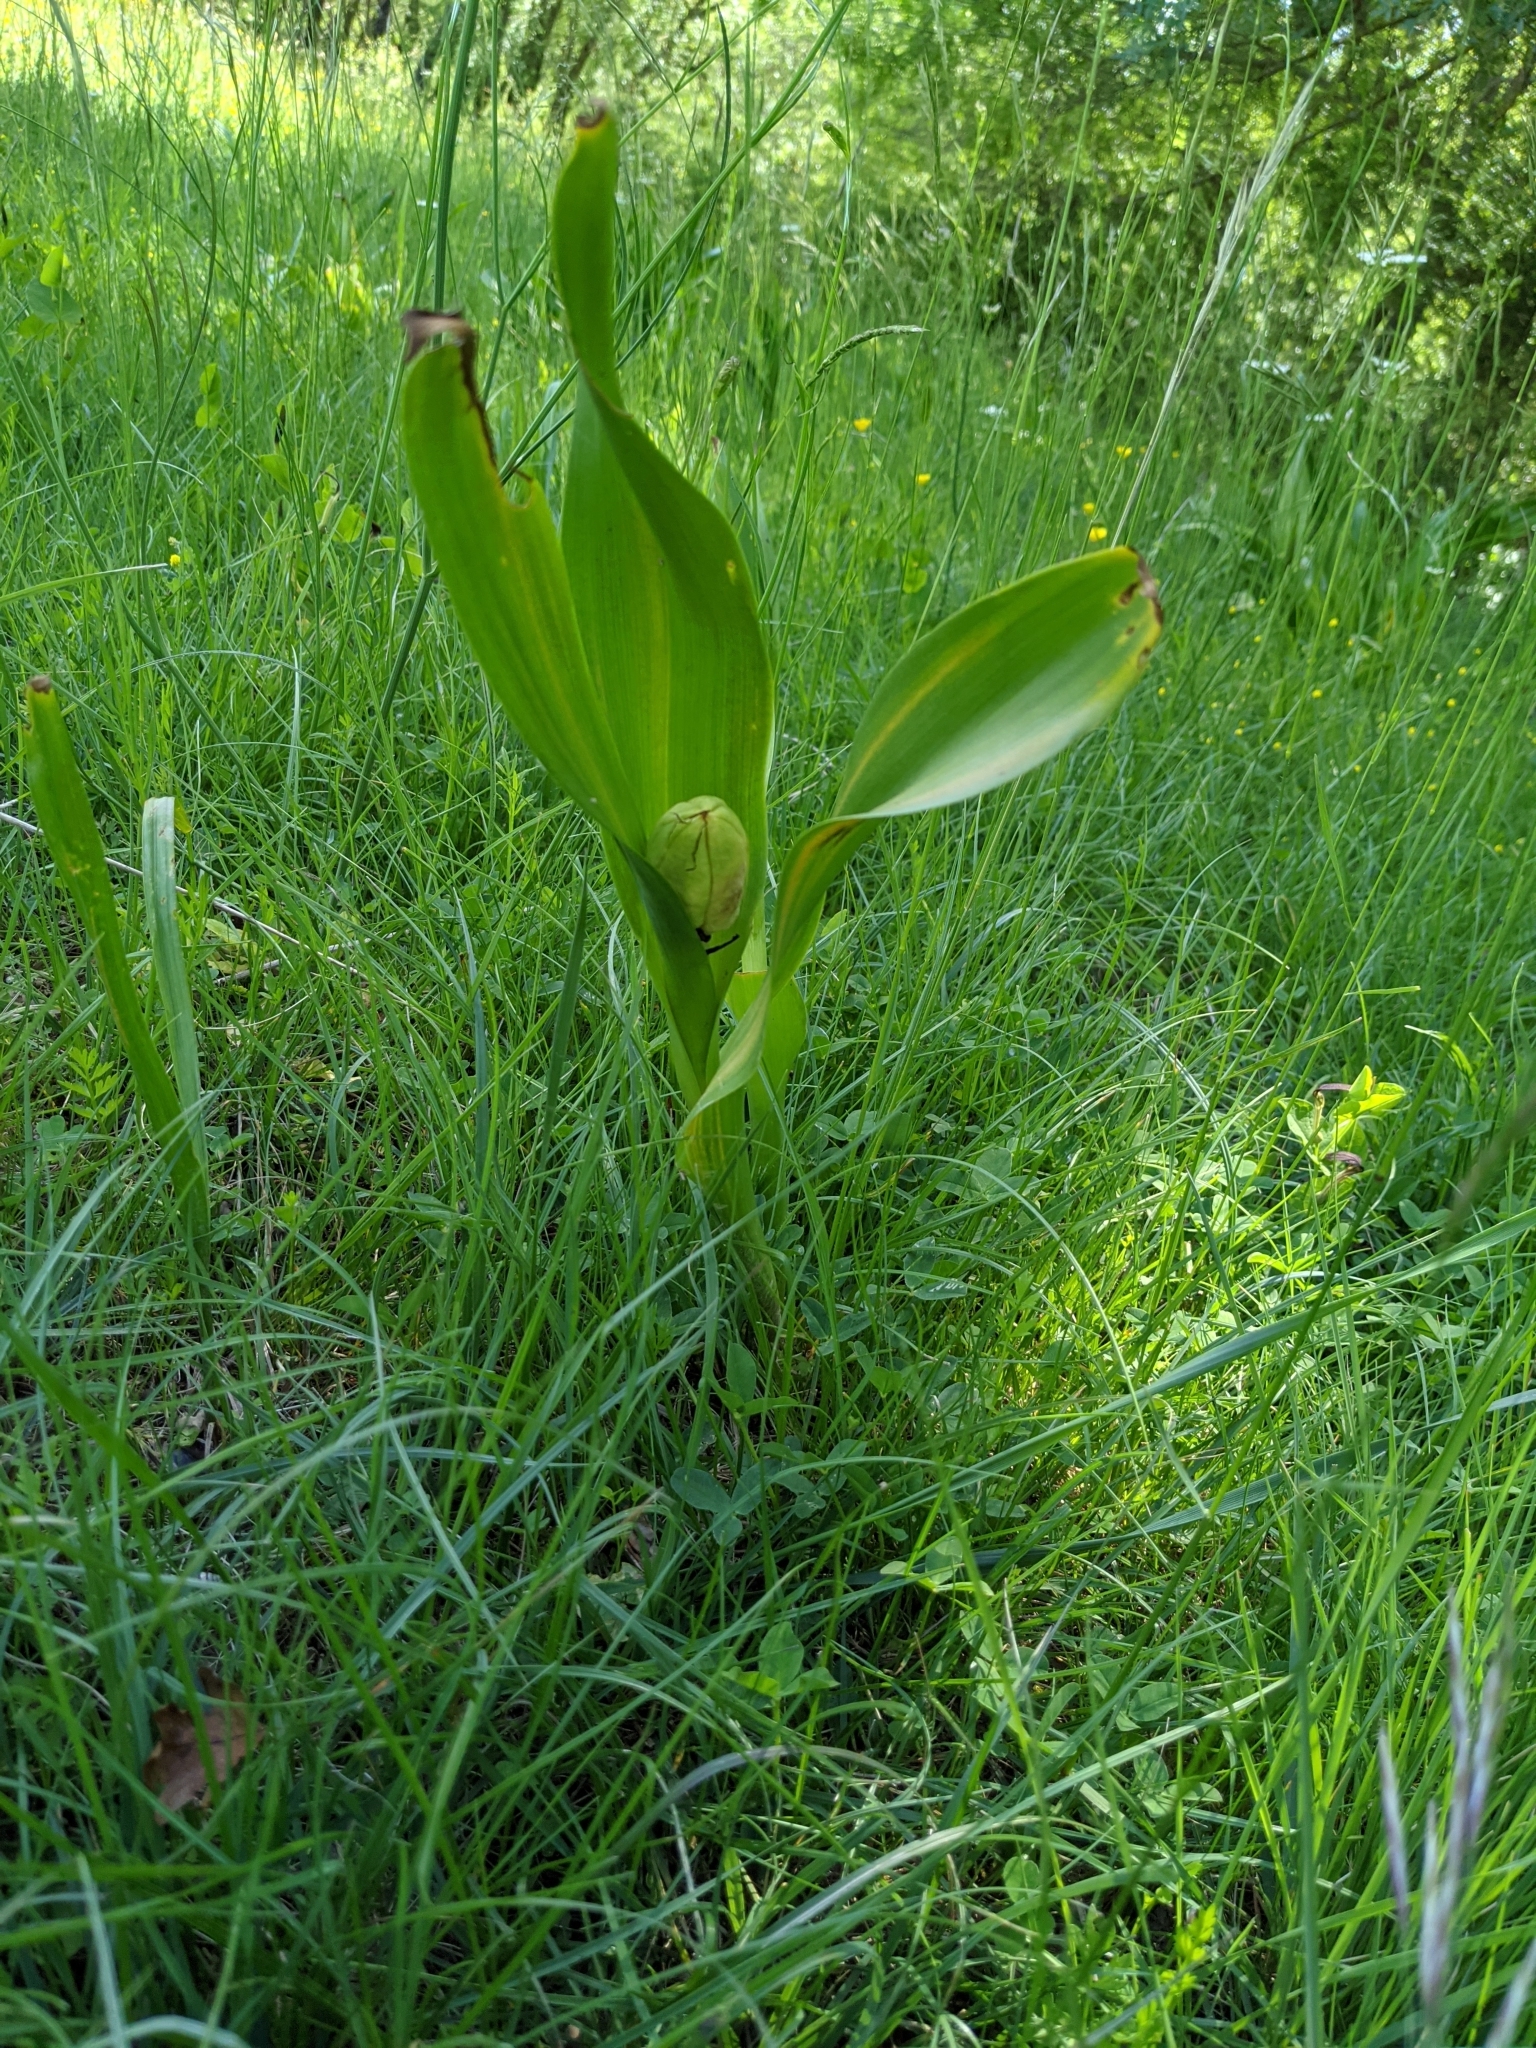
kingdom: Plantae
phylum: Tracheophyta
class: Liliopsida
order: Liliales
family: Colchicaceae
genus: Colchicum
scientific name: Colchicum autumnale
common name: Autumn crocus
